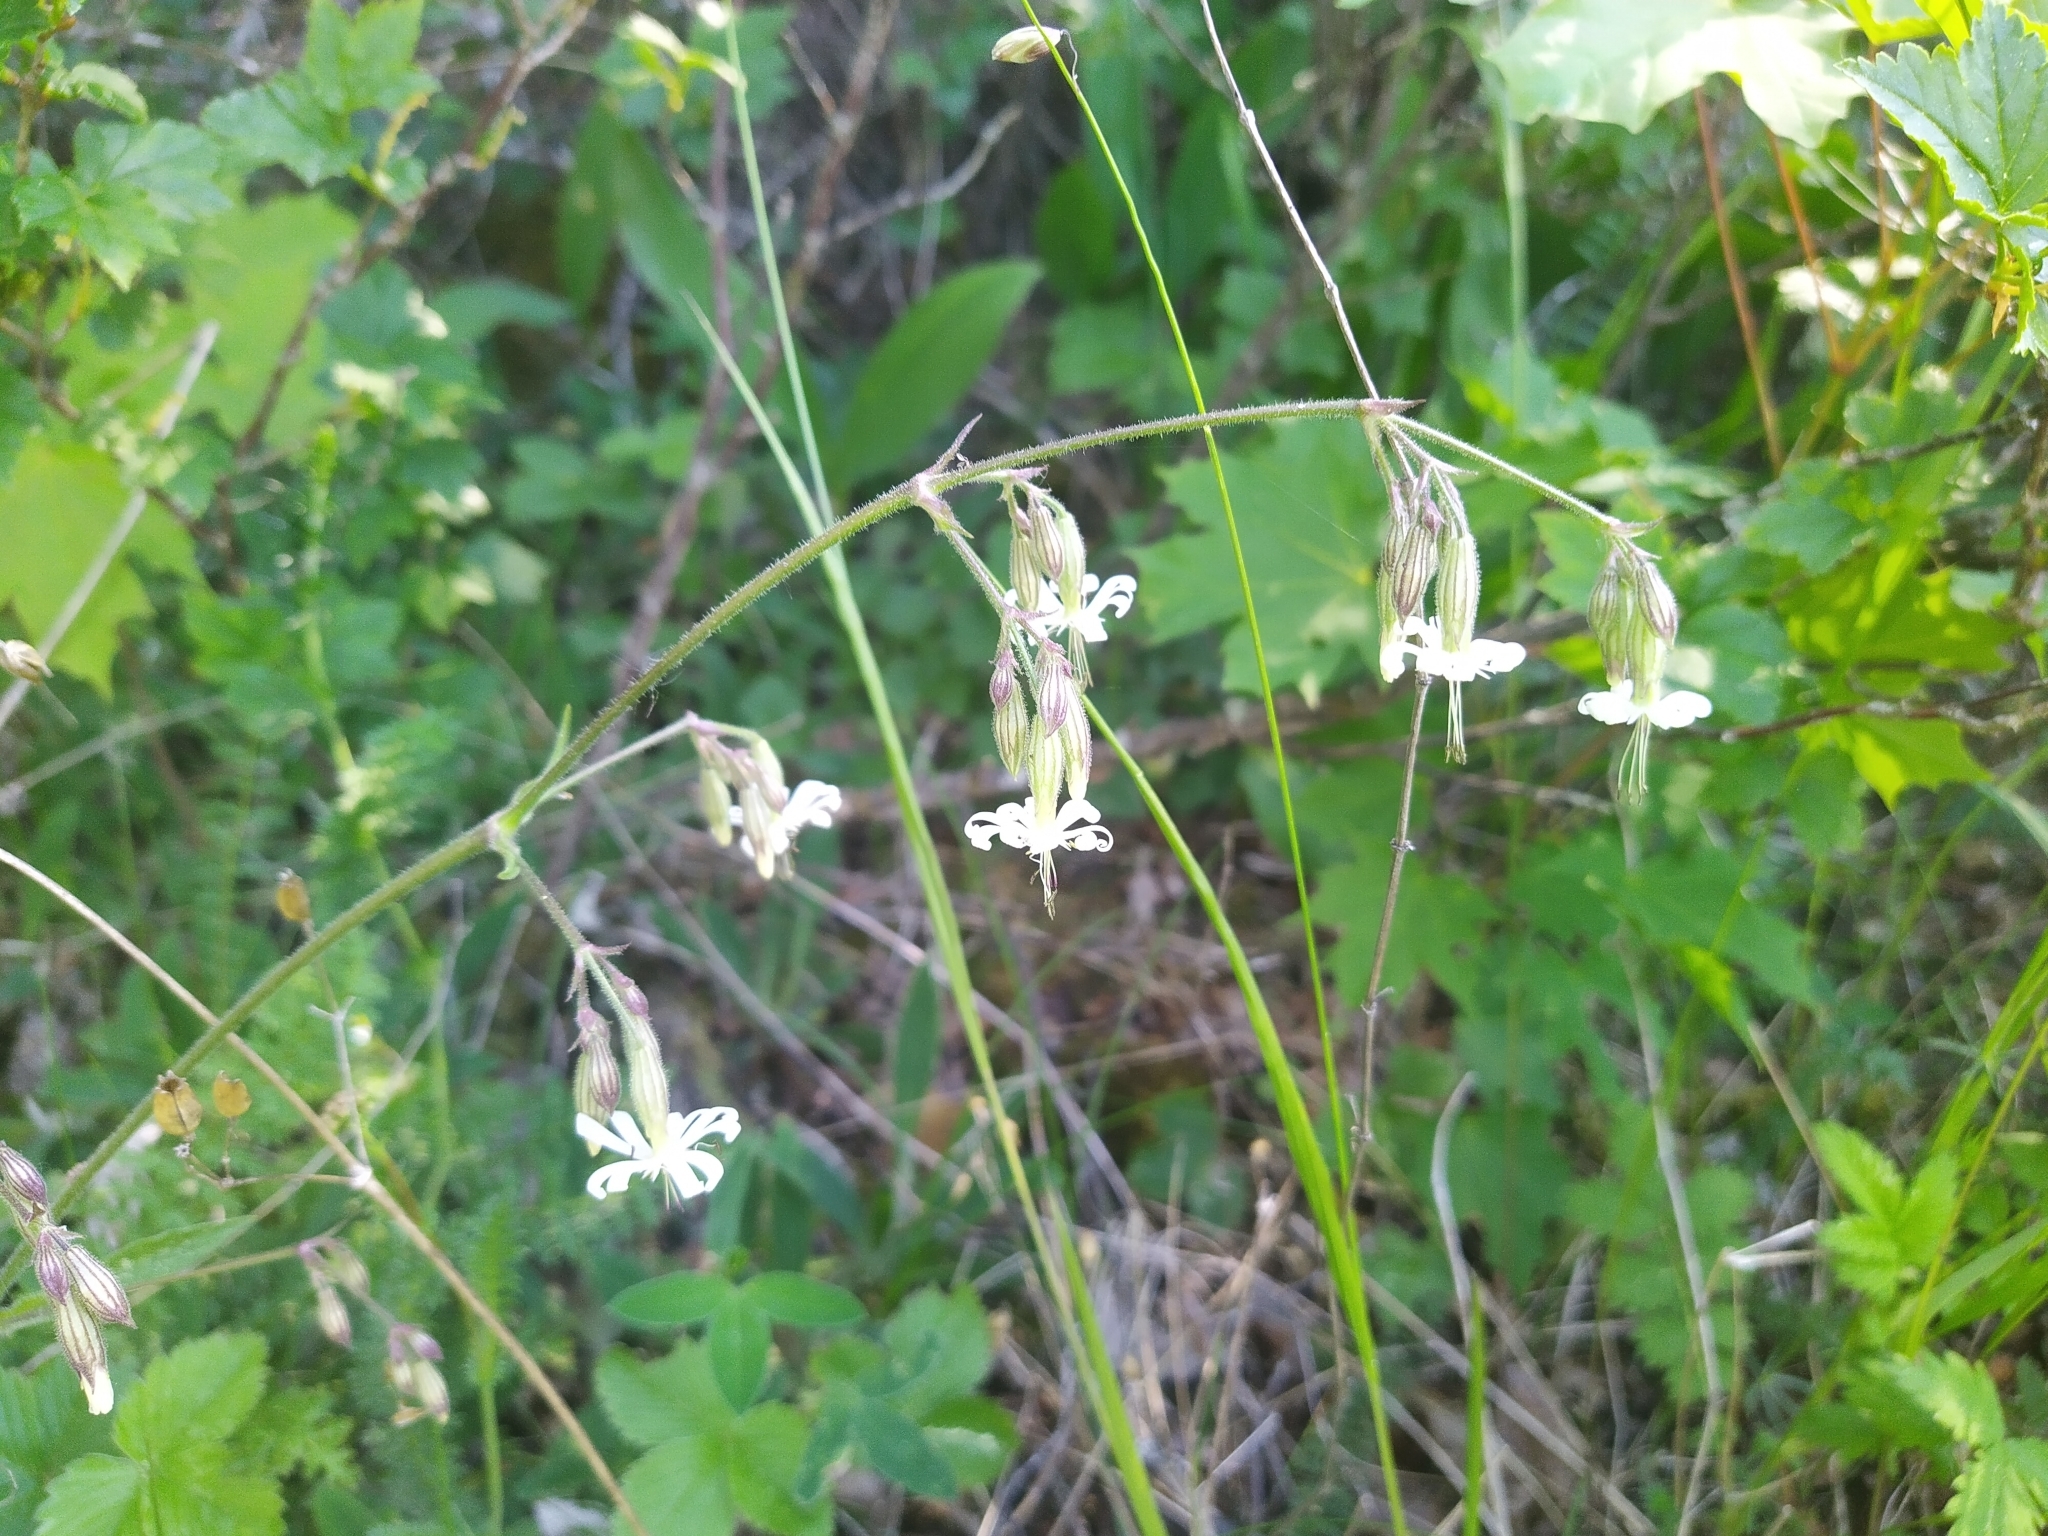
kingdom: Plantae
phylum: Tracheophyta
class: Magnoliopsida
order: Caryophyllales
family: Caryophyllaceae
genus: Silene
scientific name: Silene nutans
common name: Nottingham catchfly
